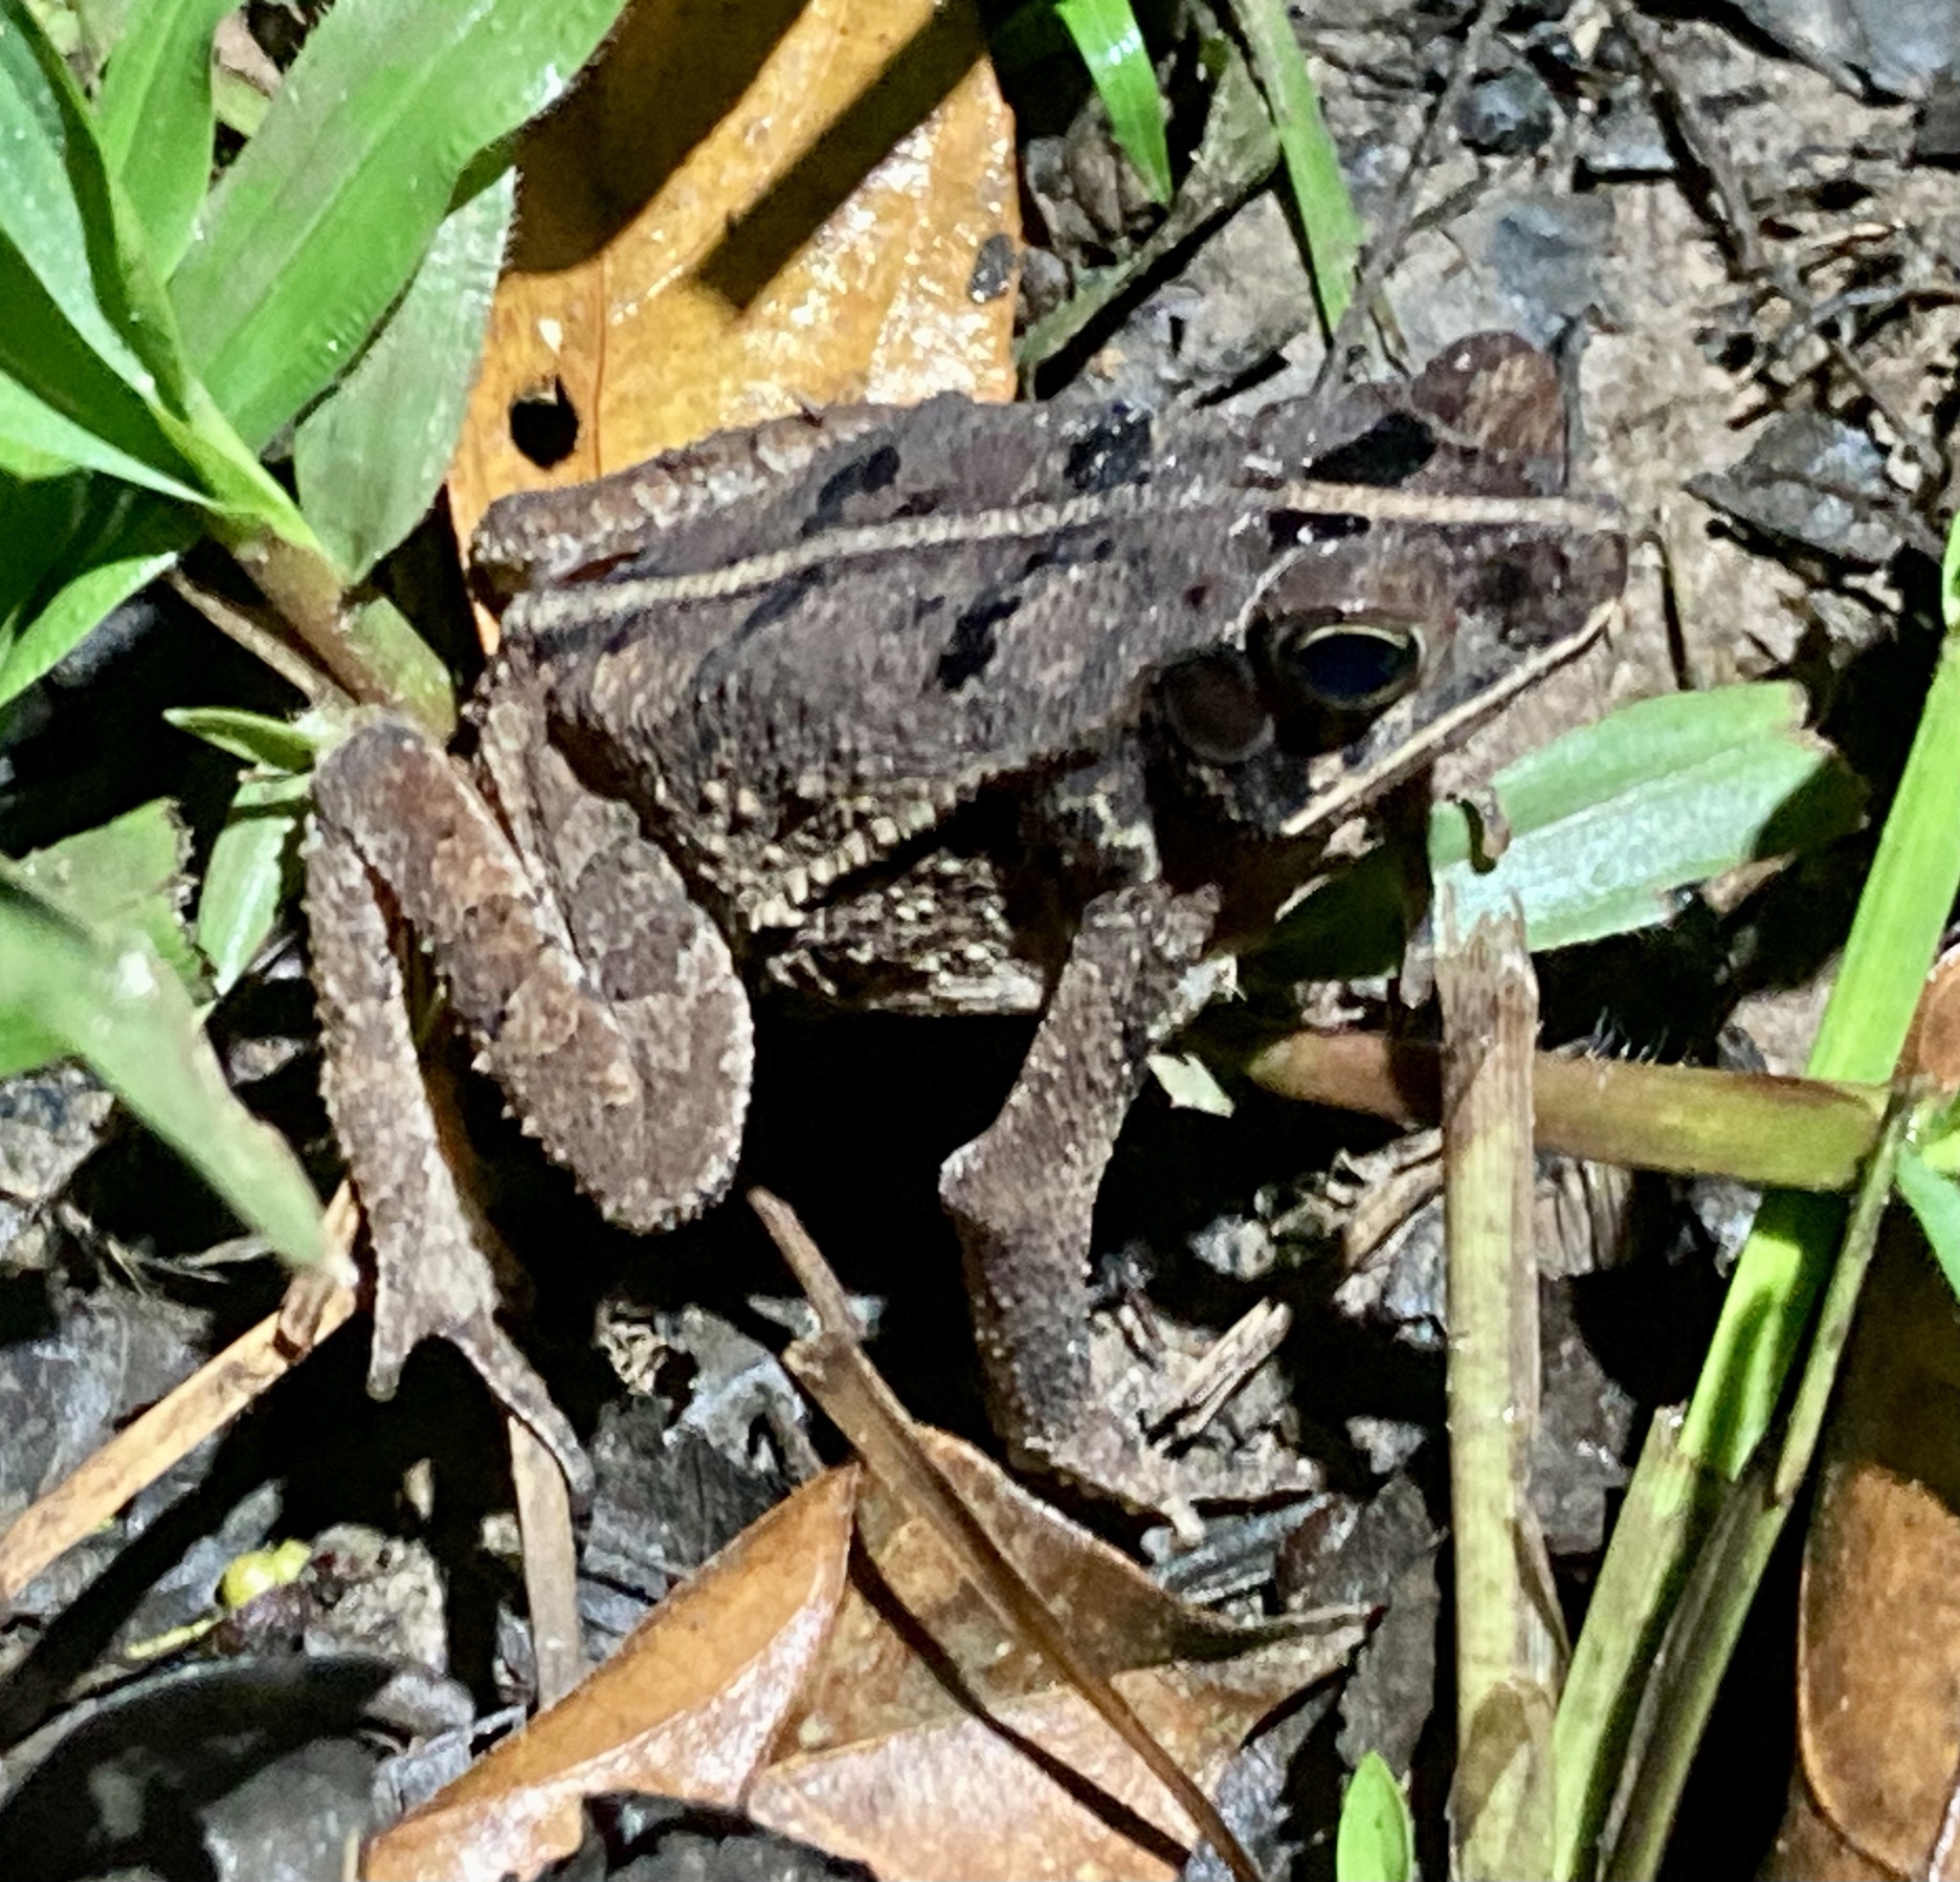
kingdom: Animalia
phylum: Chordata
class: Amphibia
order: Anura
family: Bufonidae
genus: Rhinella
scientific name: Rhinella margaritifera
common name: Mitred toad
